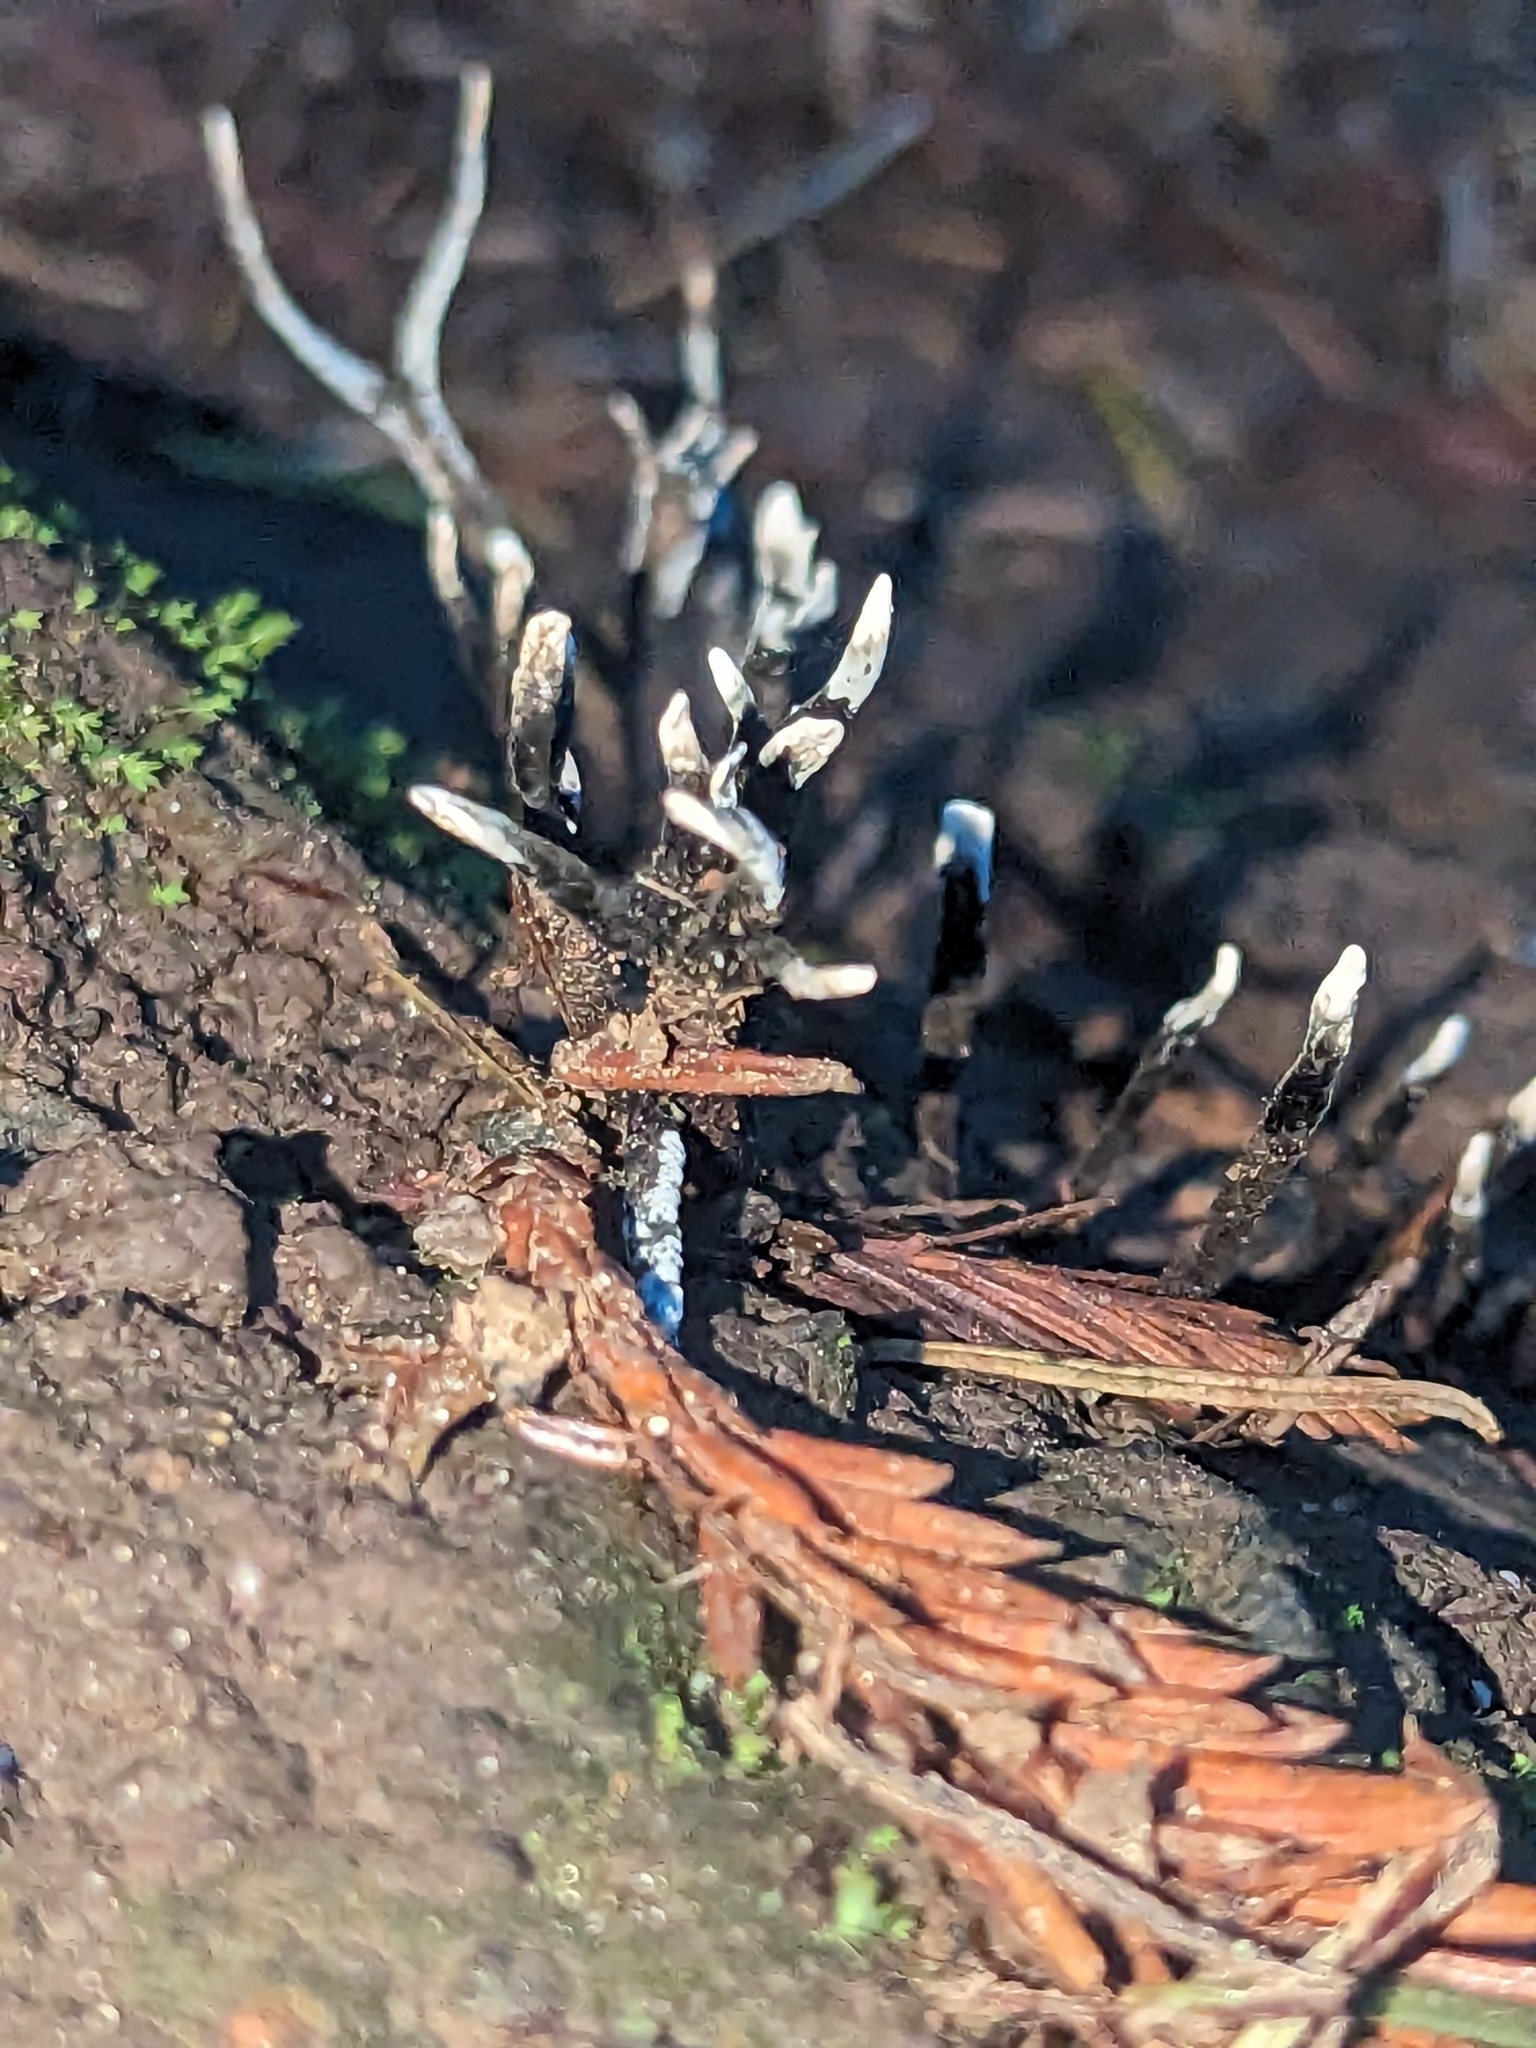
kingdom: Fungi
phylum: Ascomycota
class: Sordariomycetes
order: Xylariales
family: Xylariaceae
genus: Xylaria
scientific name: Xylaria hypoxylon
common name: Candle-snuff fungus
